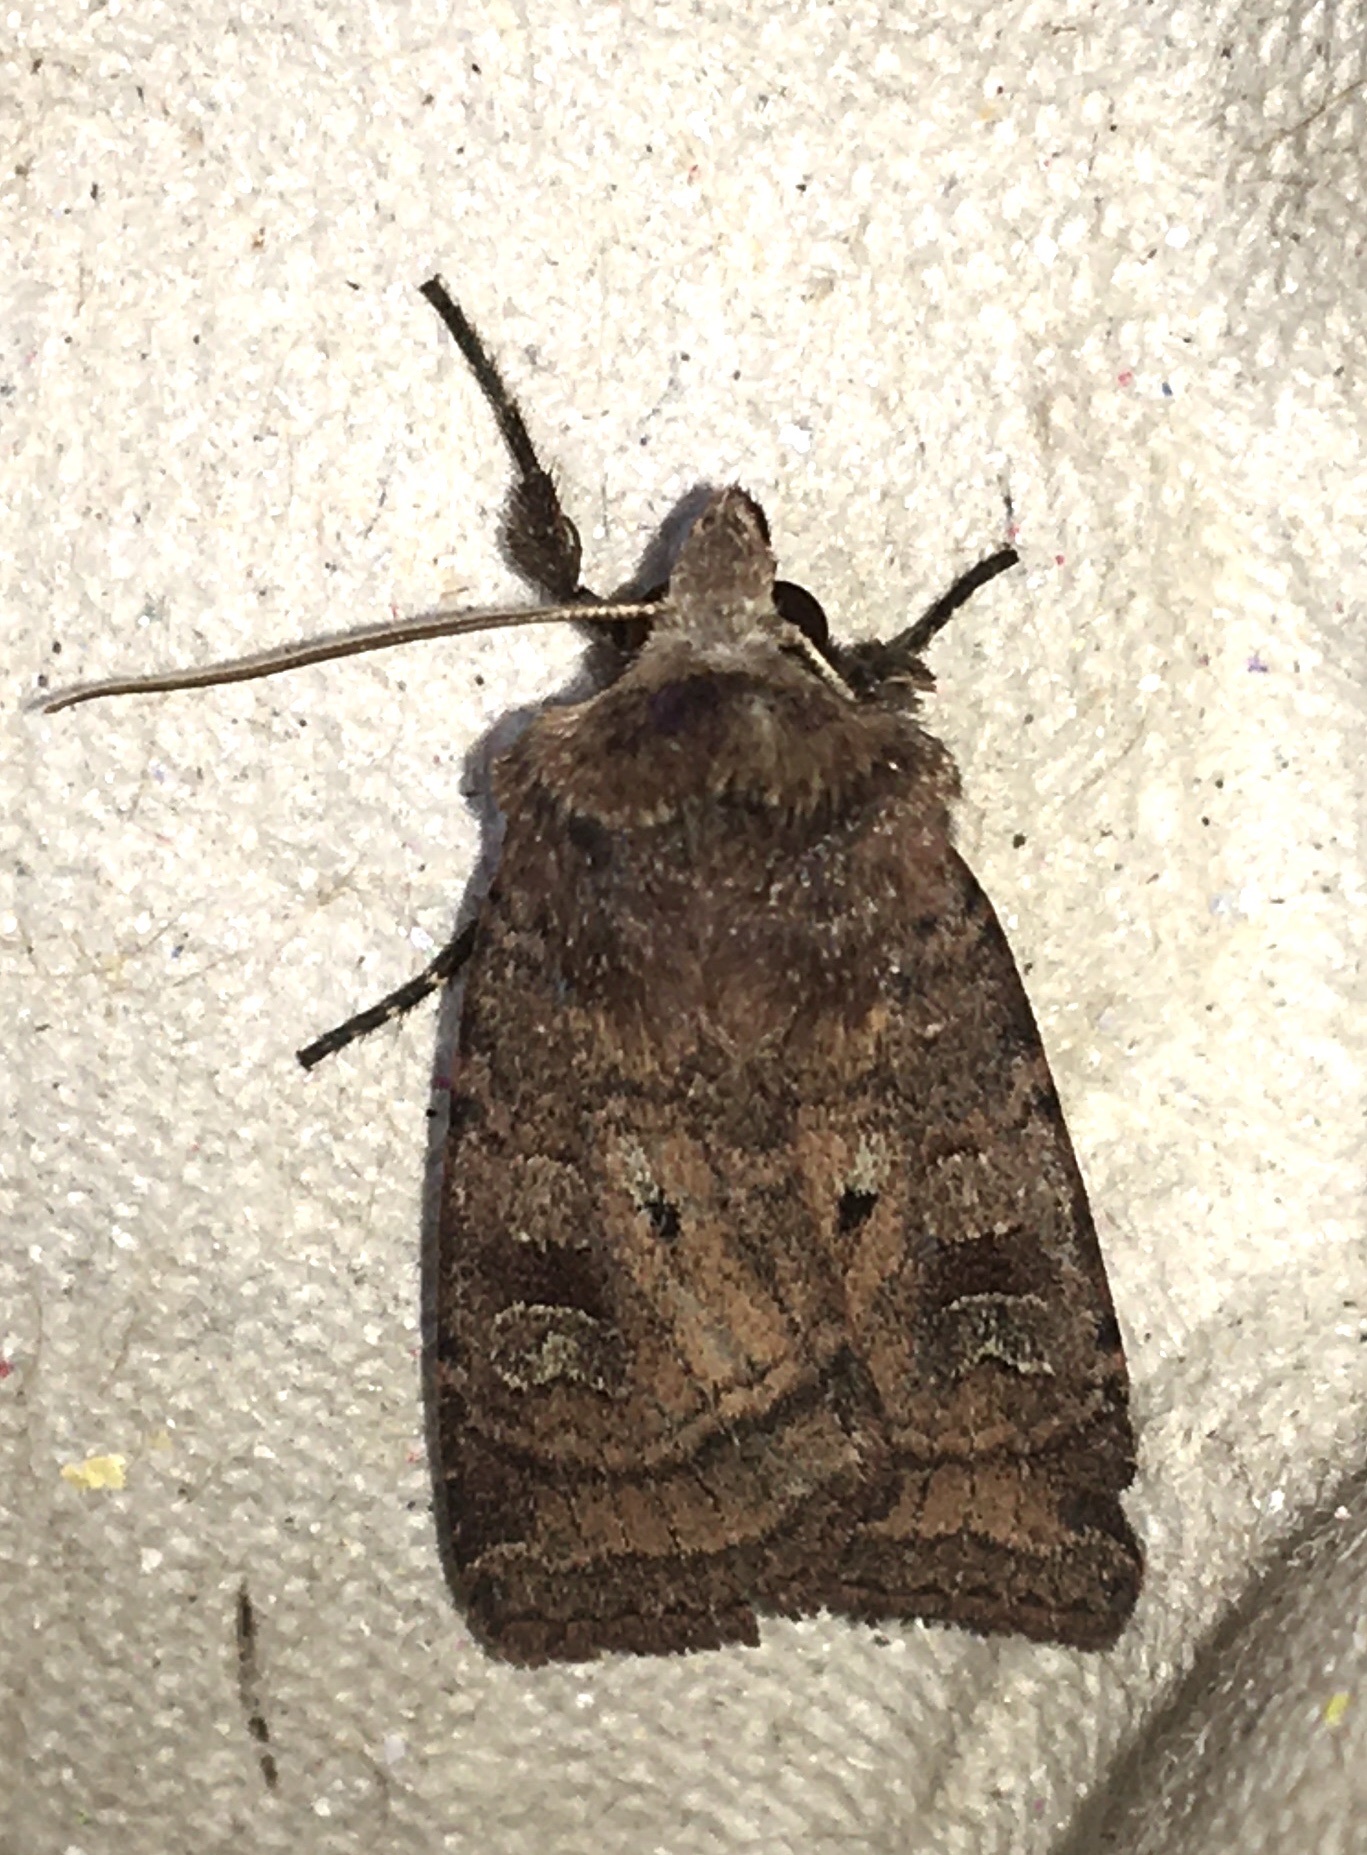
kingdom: Animalia
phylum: Arthropoda
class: Insecta
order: Lepidoptera
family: Noctuidae
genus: Diarsia
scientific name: Diarsia rubi
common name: Small square-spot
